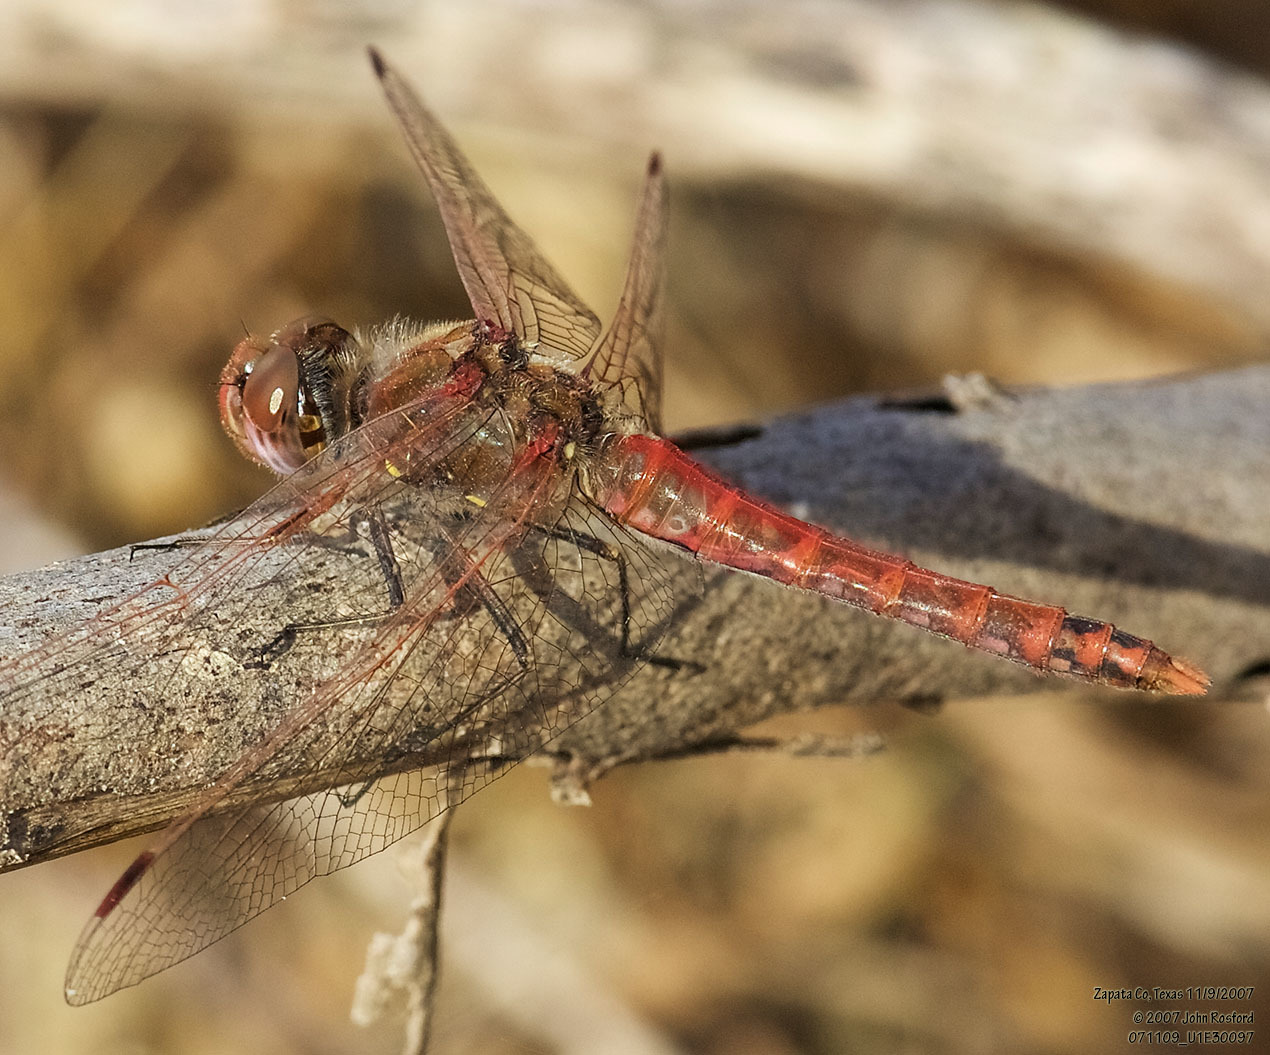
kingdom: Animalia
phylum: Arthropoda
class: Insecta
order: Odonata
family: Libellulidae
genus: Sympetrum
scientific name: Sympetrum corruptum
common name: Variegated meadowhawk
